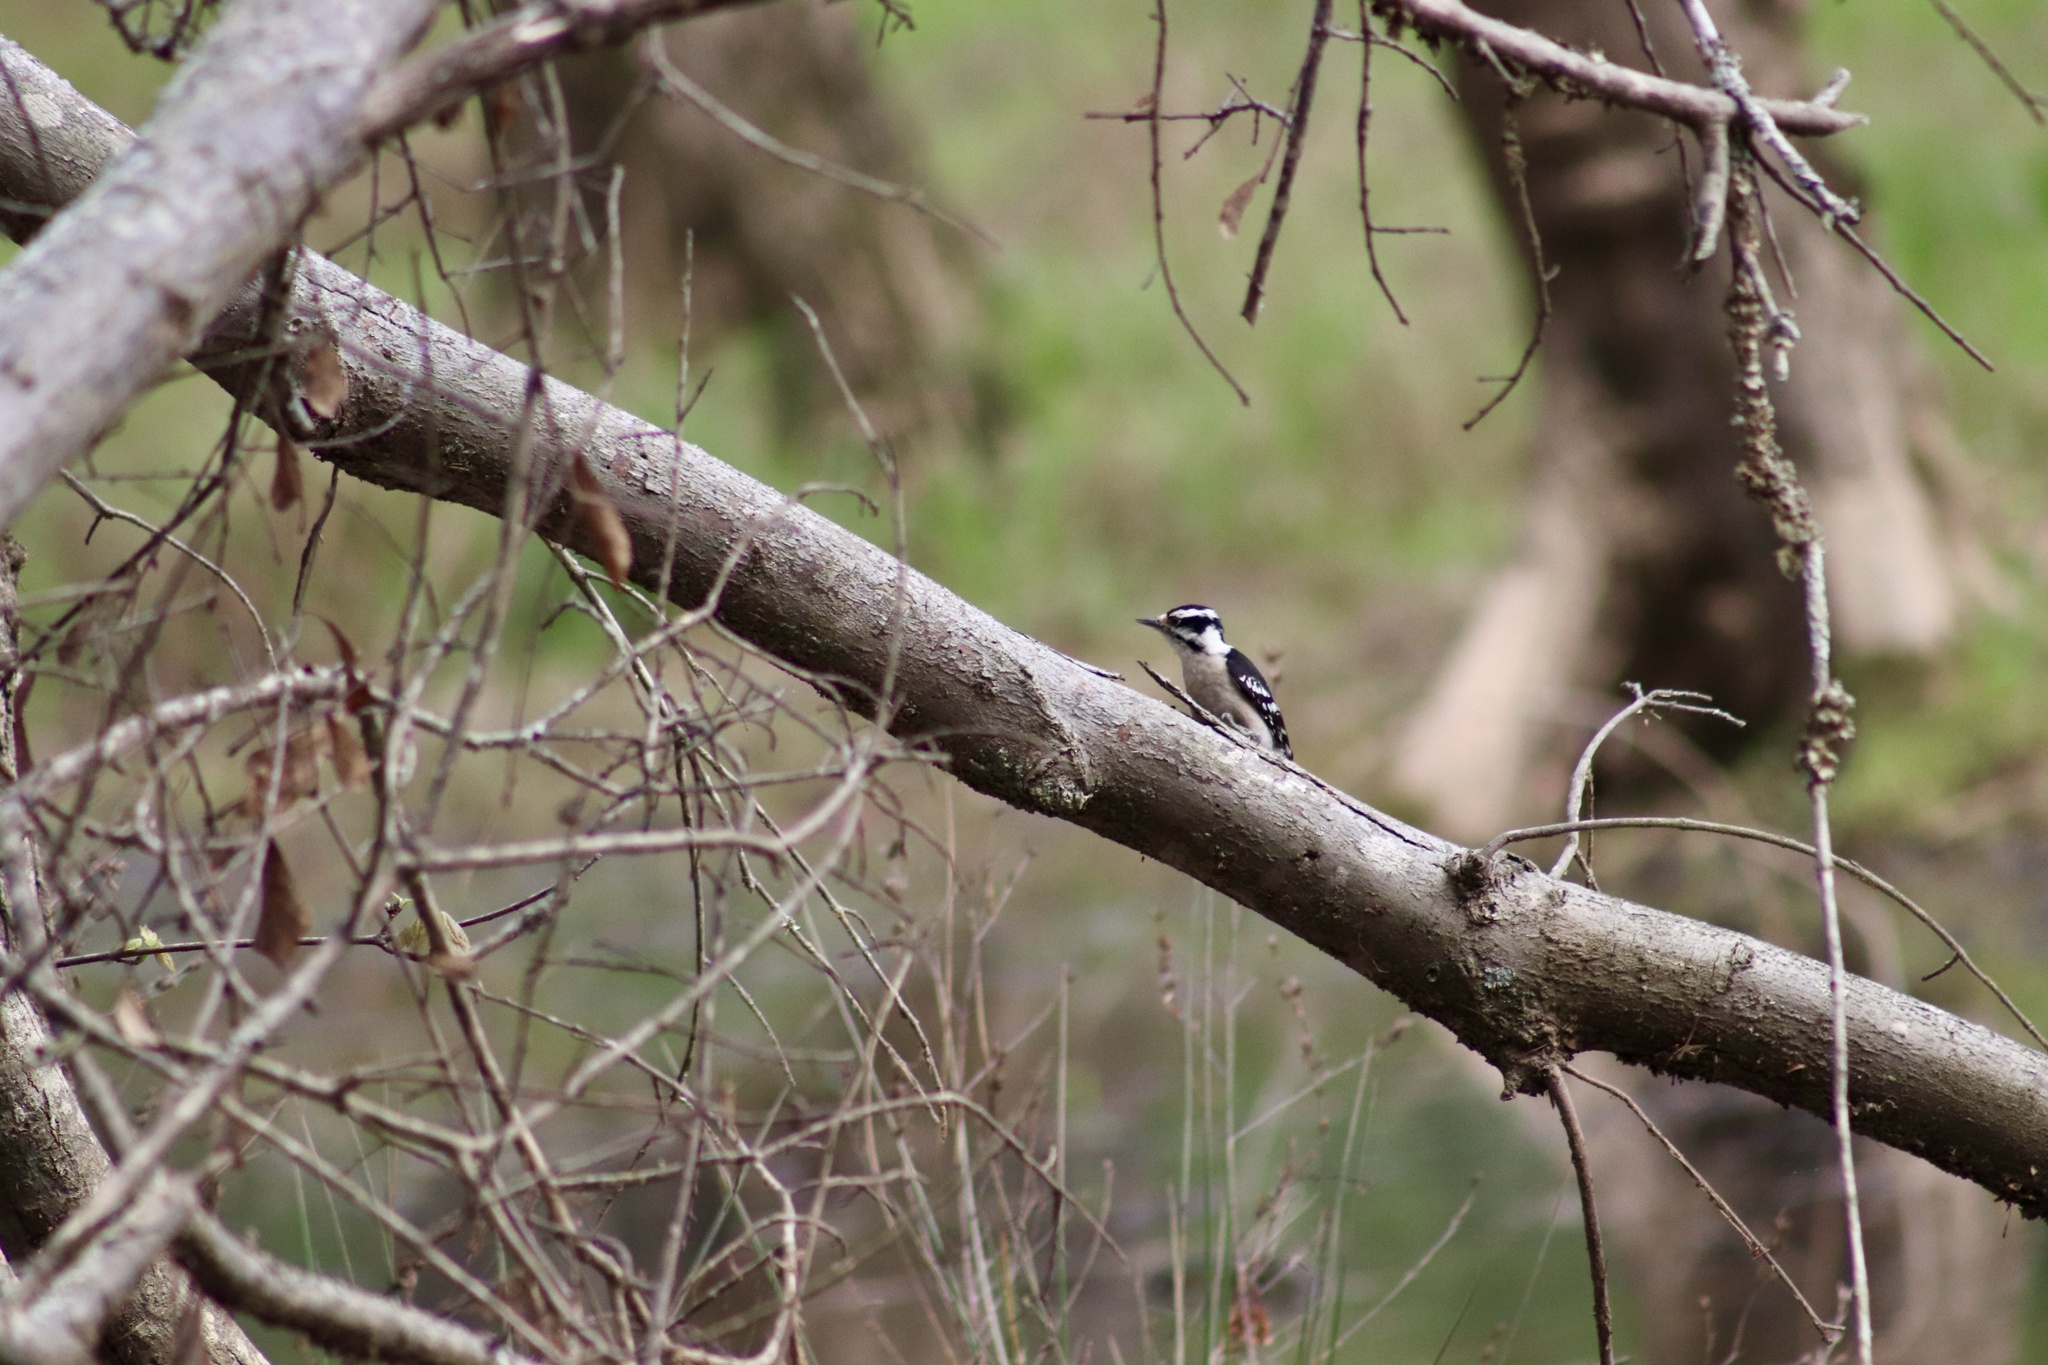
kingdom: Animalia
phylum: Chordata
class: Aves
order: Piciformes
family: Picidae
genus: Dryobates
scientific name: Dryobates pubescens
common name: Downy woodpecker
